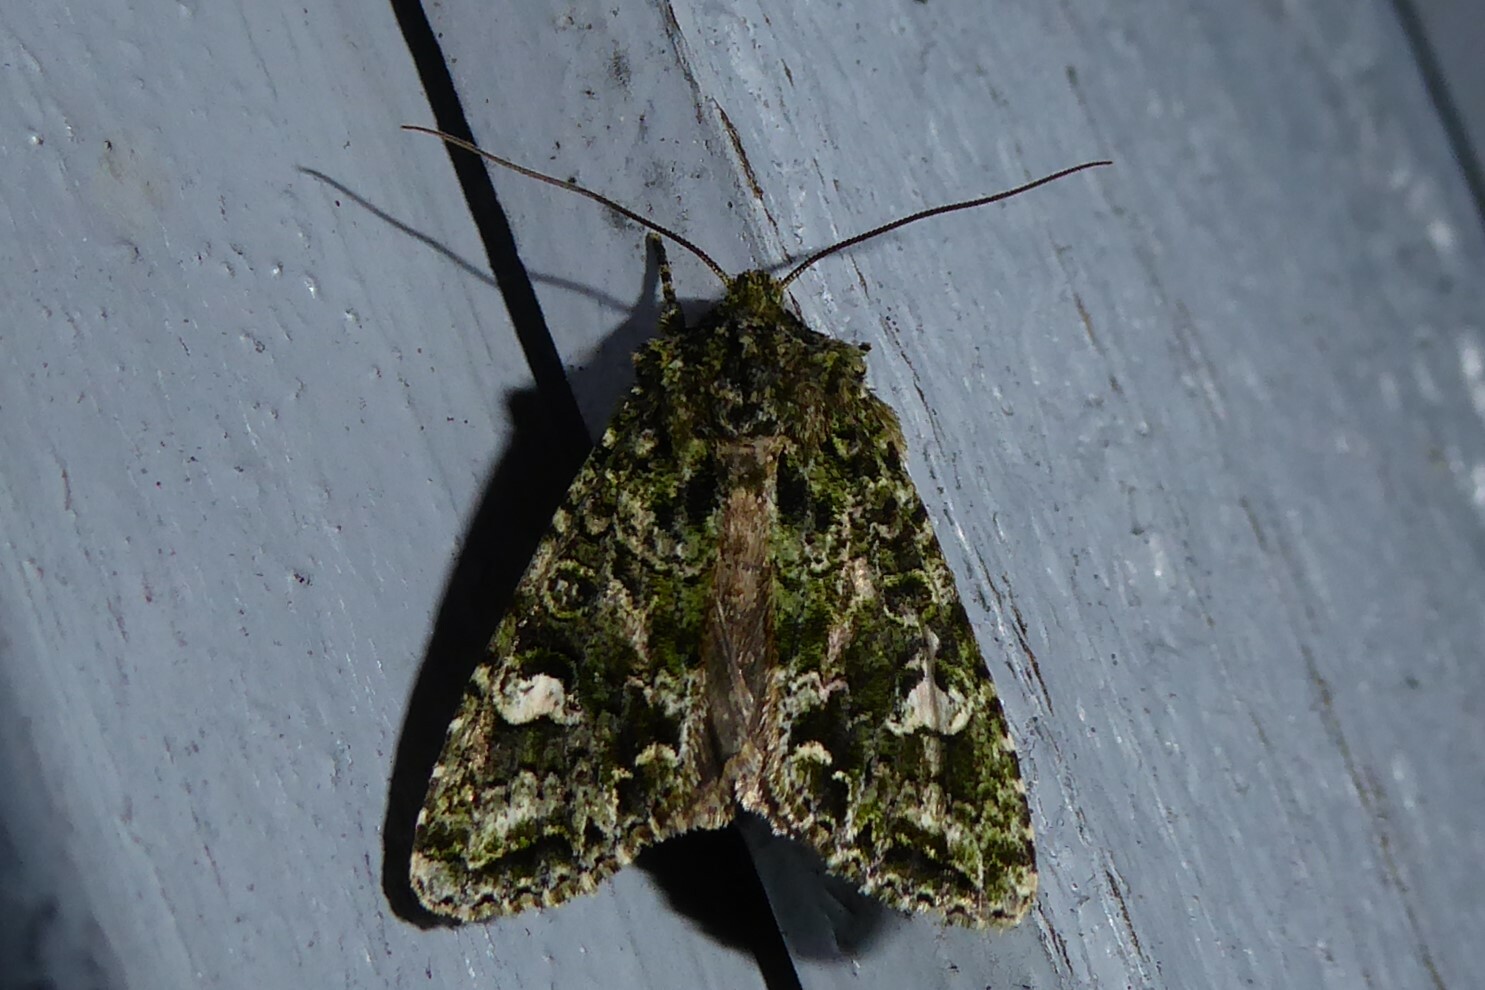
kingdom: Animalia
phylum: Arthropoda
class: Insecta
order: Lepidoptera
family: Noctuidae
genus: Ichneutica
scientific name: Ichneutica
